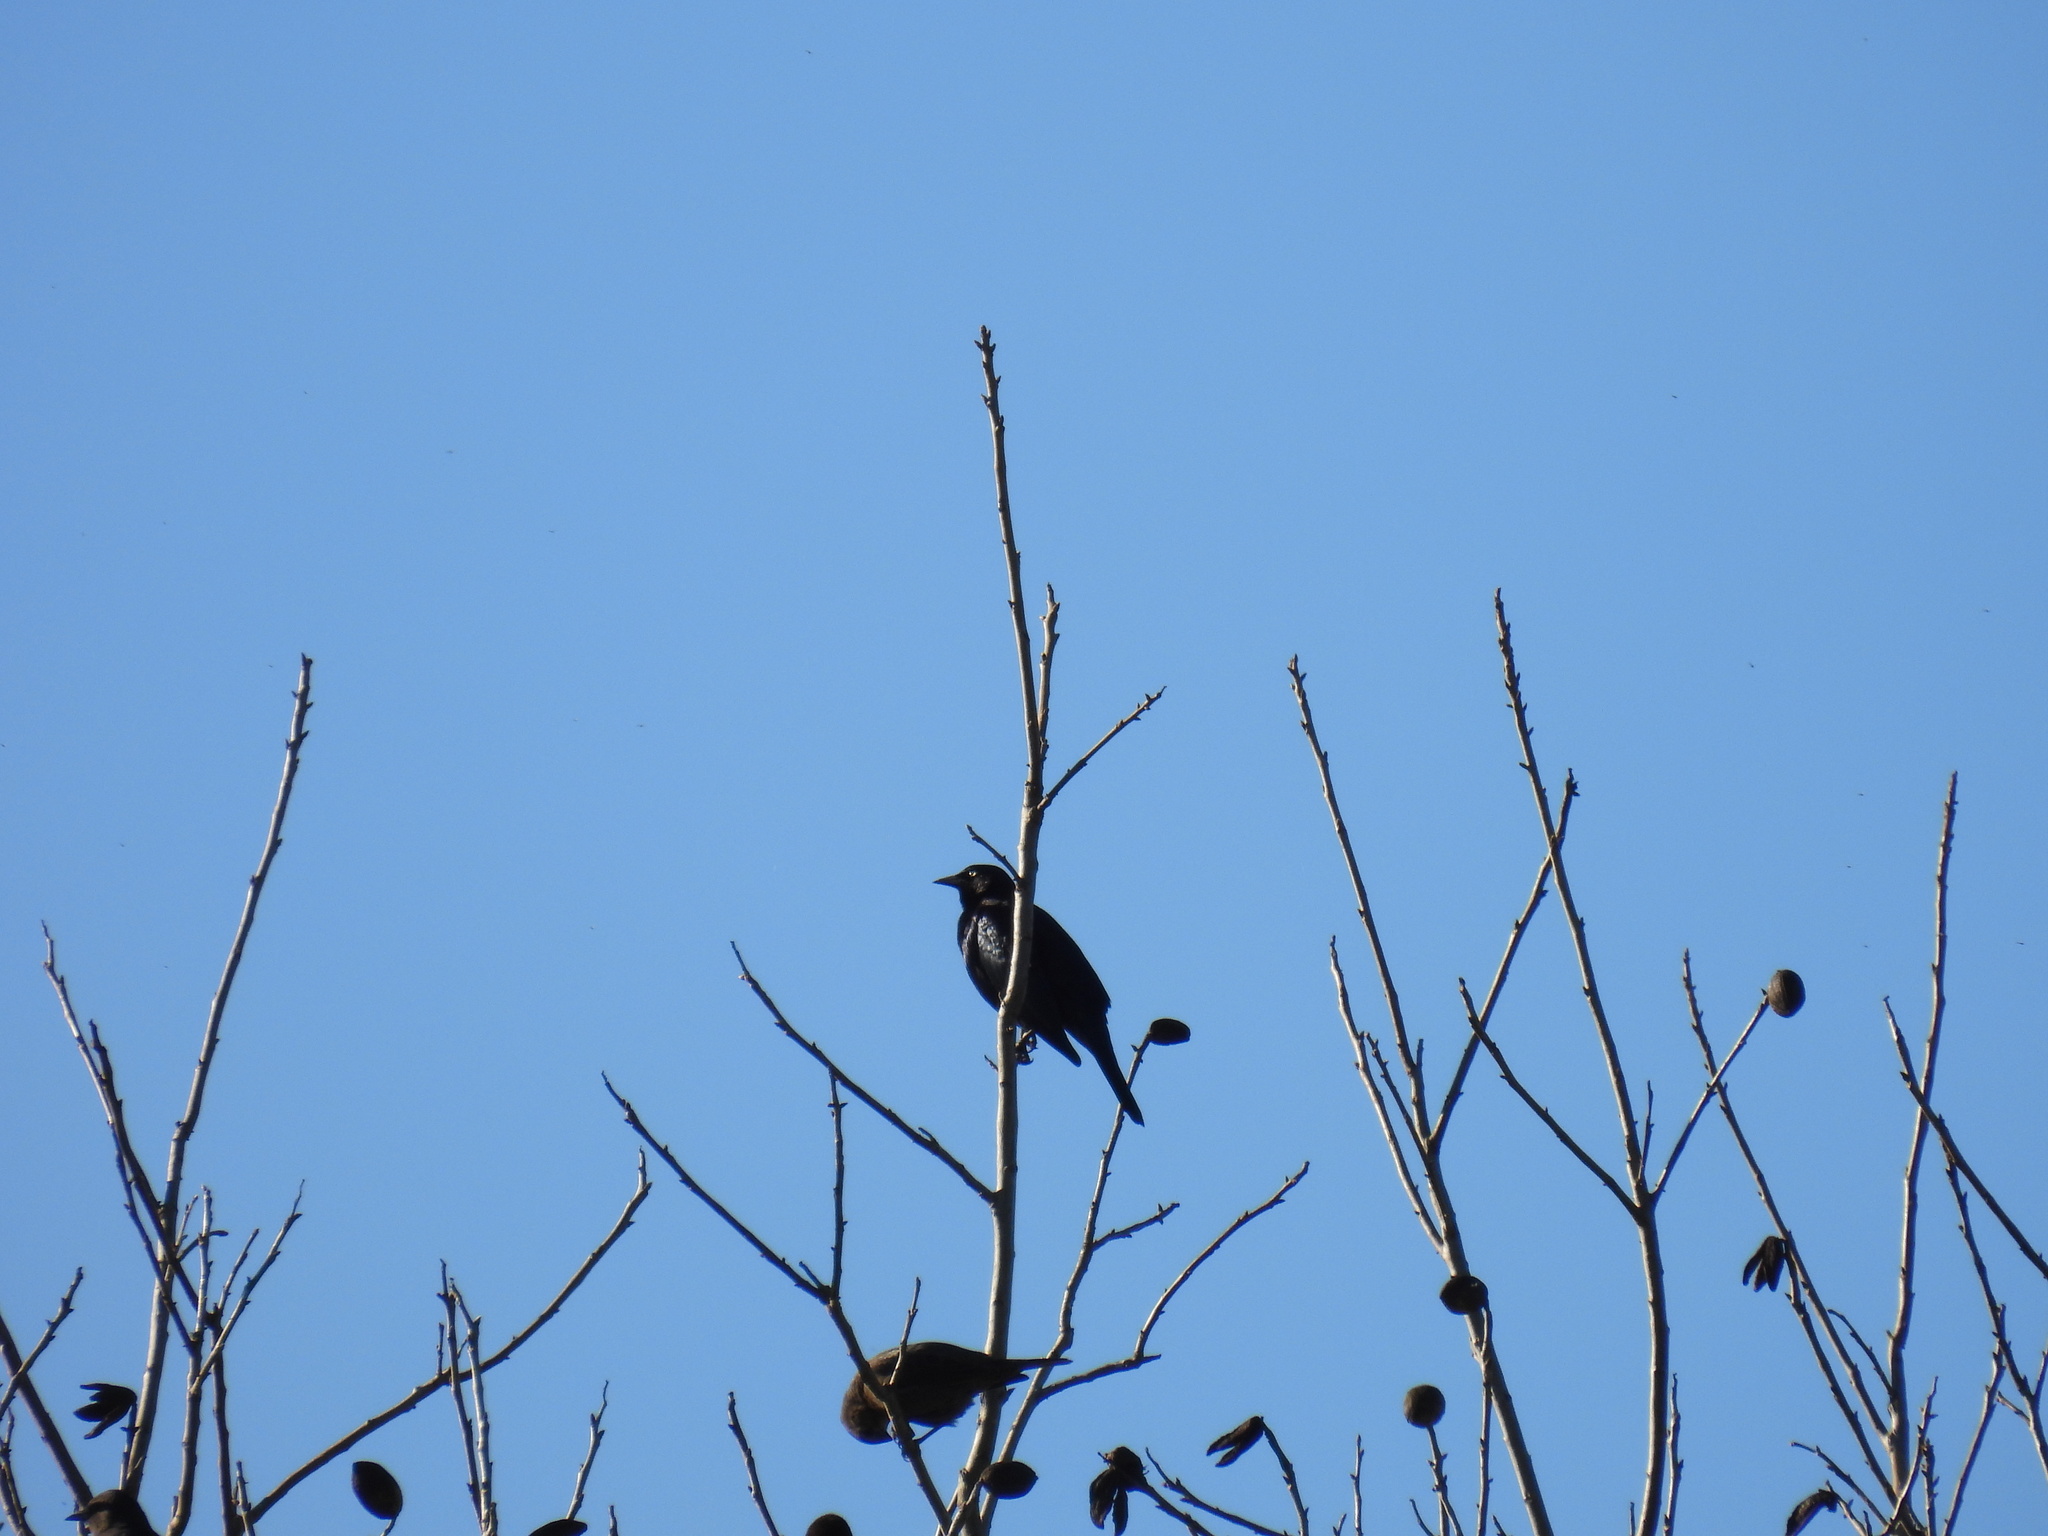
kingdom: Animalia
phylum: Chordata
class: Aves
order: Passeriformes
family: Icteridae
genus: Euphagus
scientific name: Euphagus cyanocephalus
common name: Brewer's blackbird
